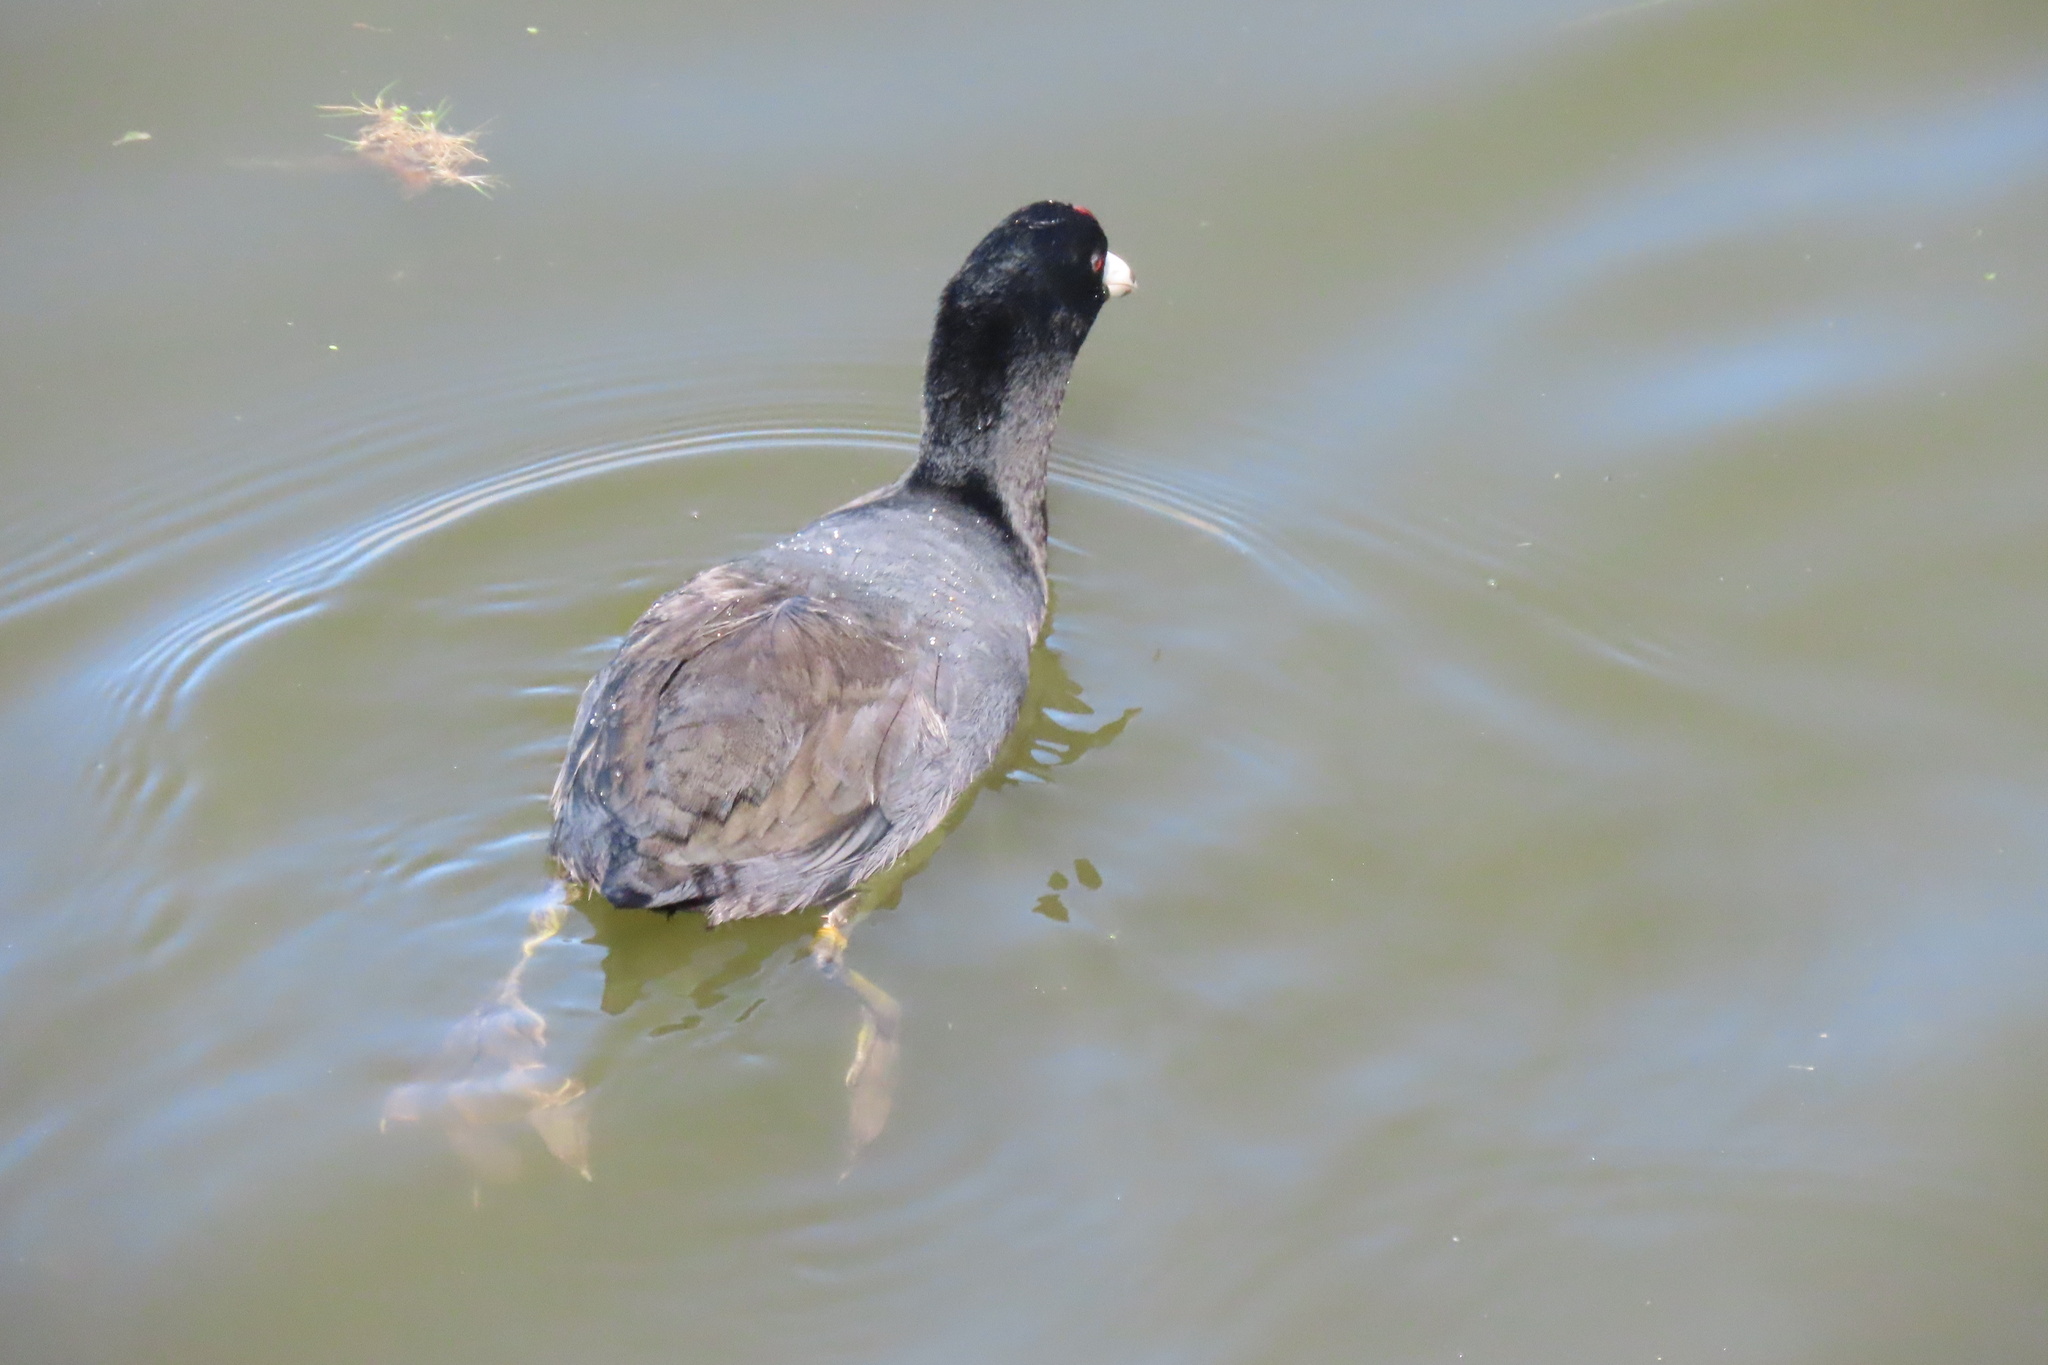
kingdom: Animalia
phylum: Chordata
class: Aves
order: Gruiformes
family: Rallidae
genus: Fulica
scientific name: Fulica americana
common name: American coot
